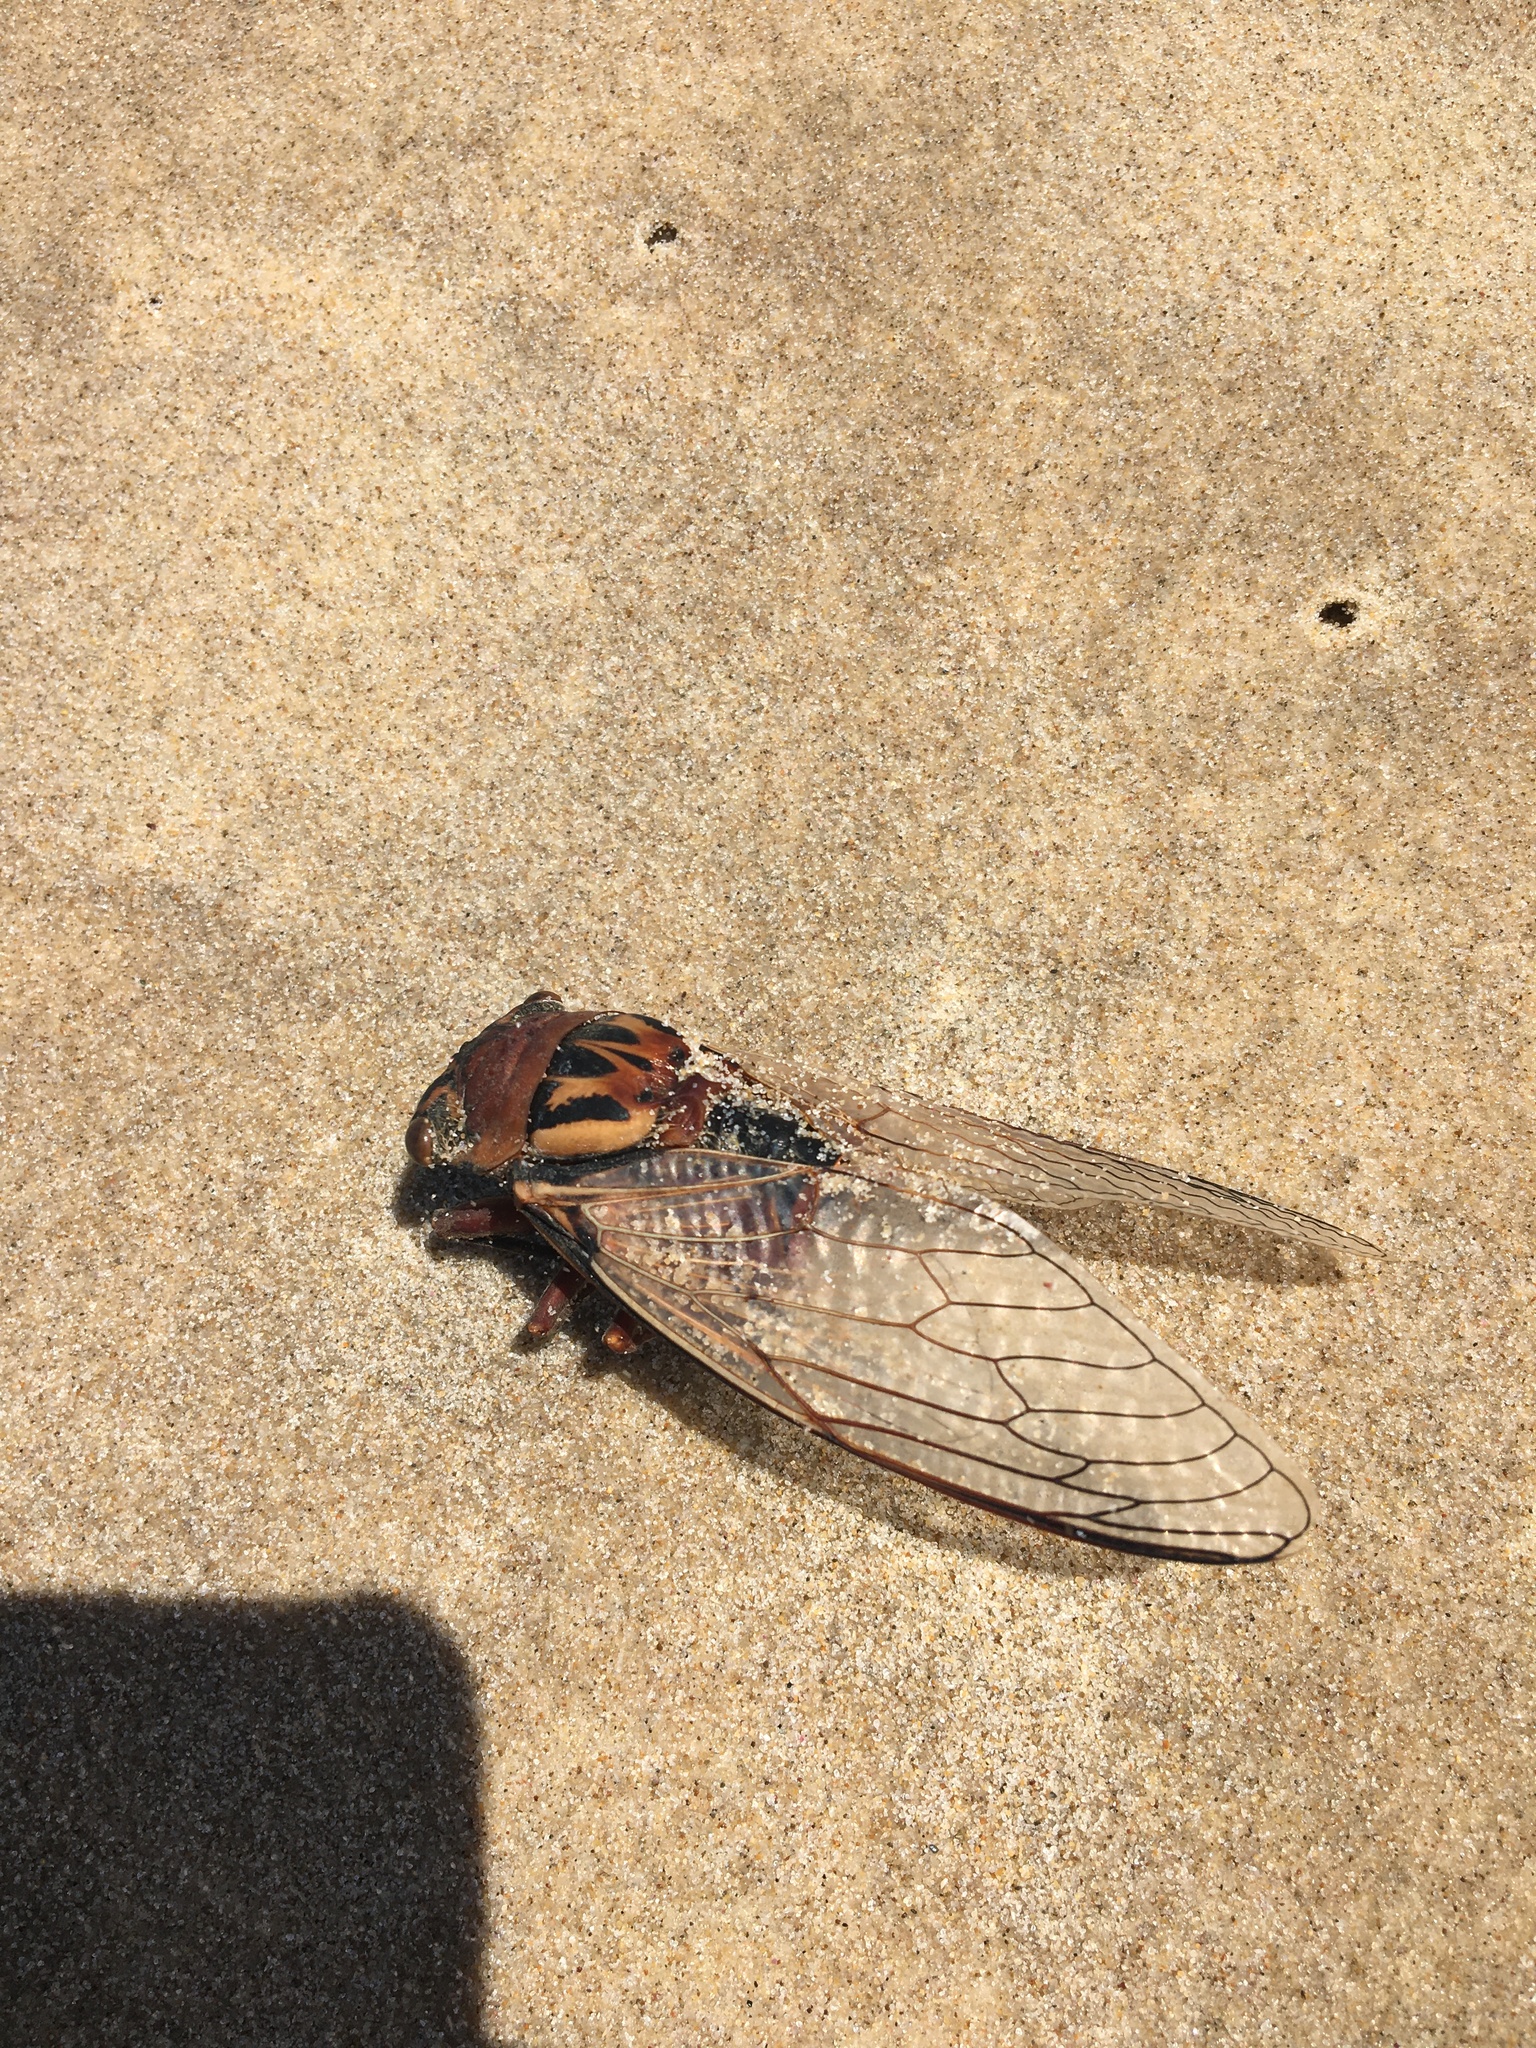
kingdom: Animalia
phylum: Arthropoda
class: Insecta
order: Hemiptera
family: Cicadidae
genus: Thopha
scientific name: Thopha saccata
